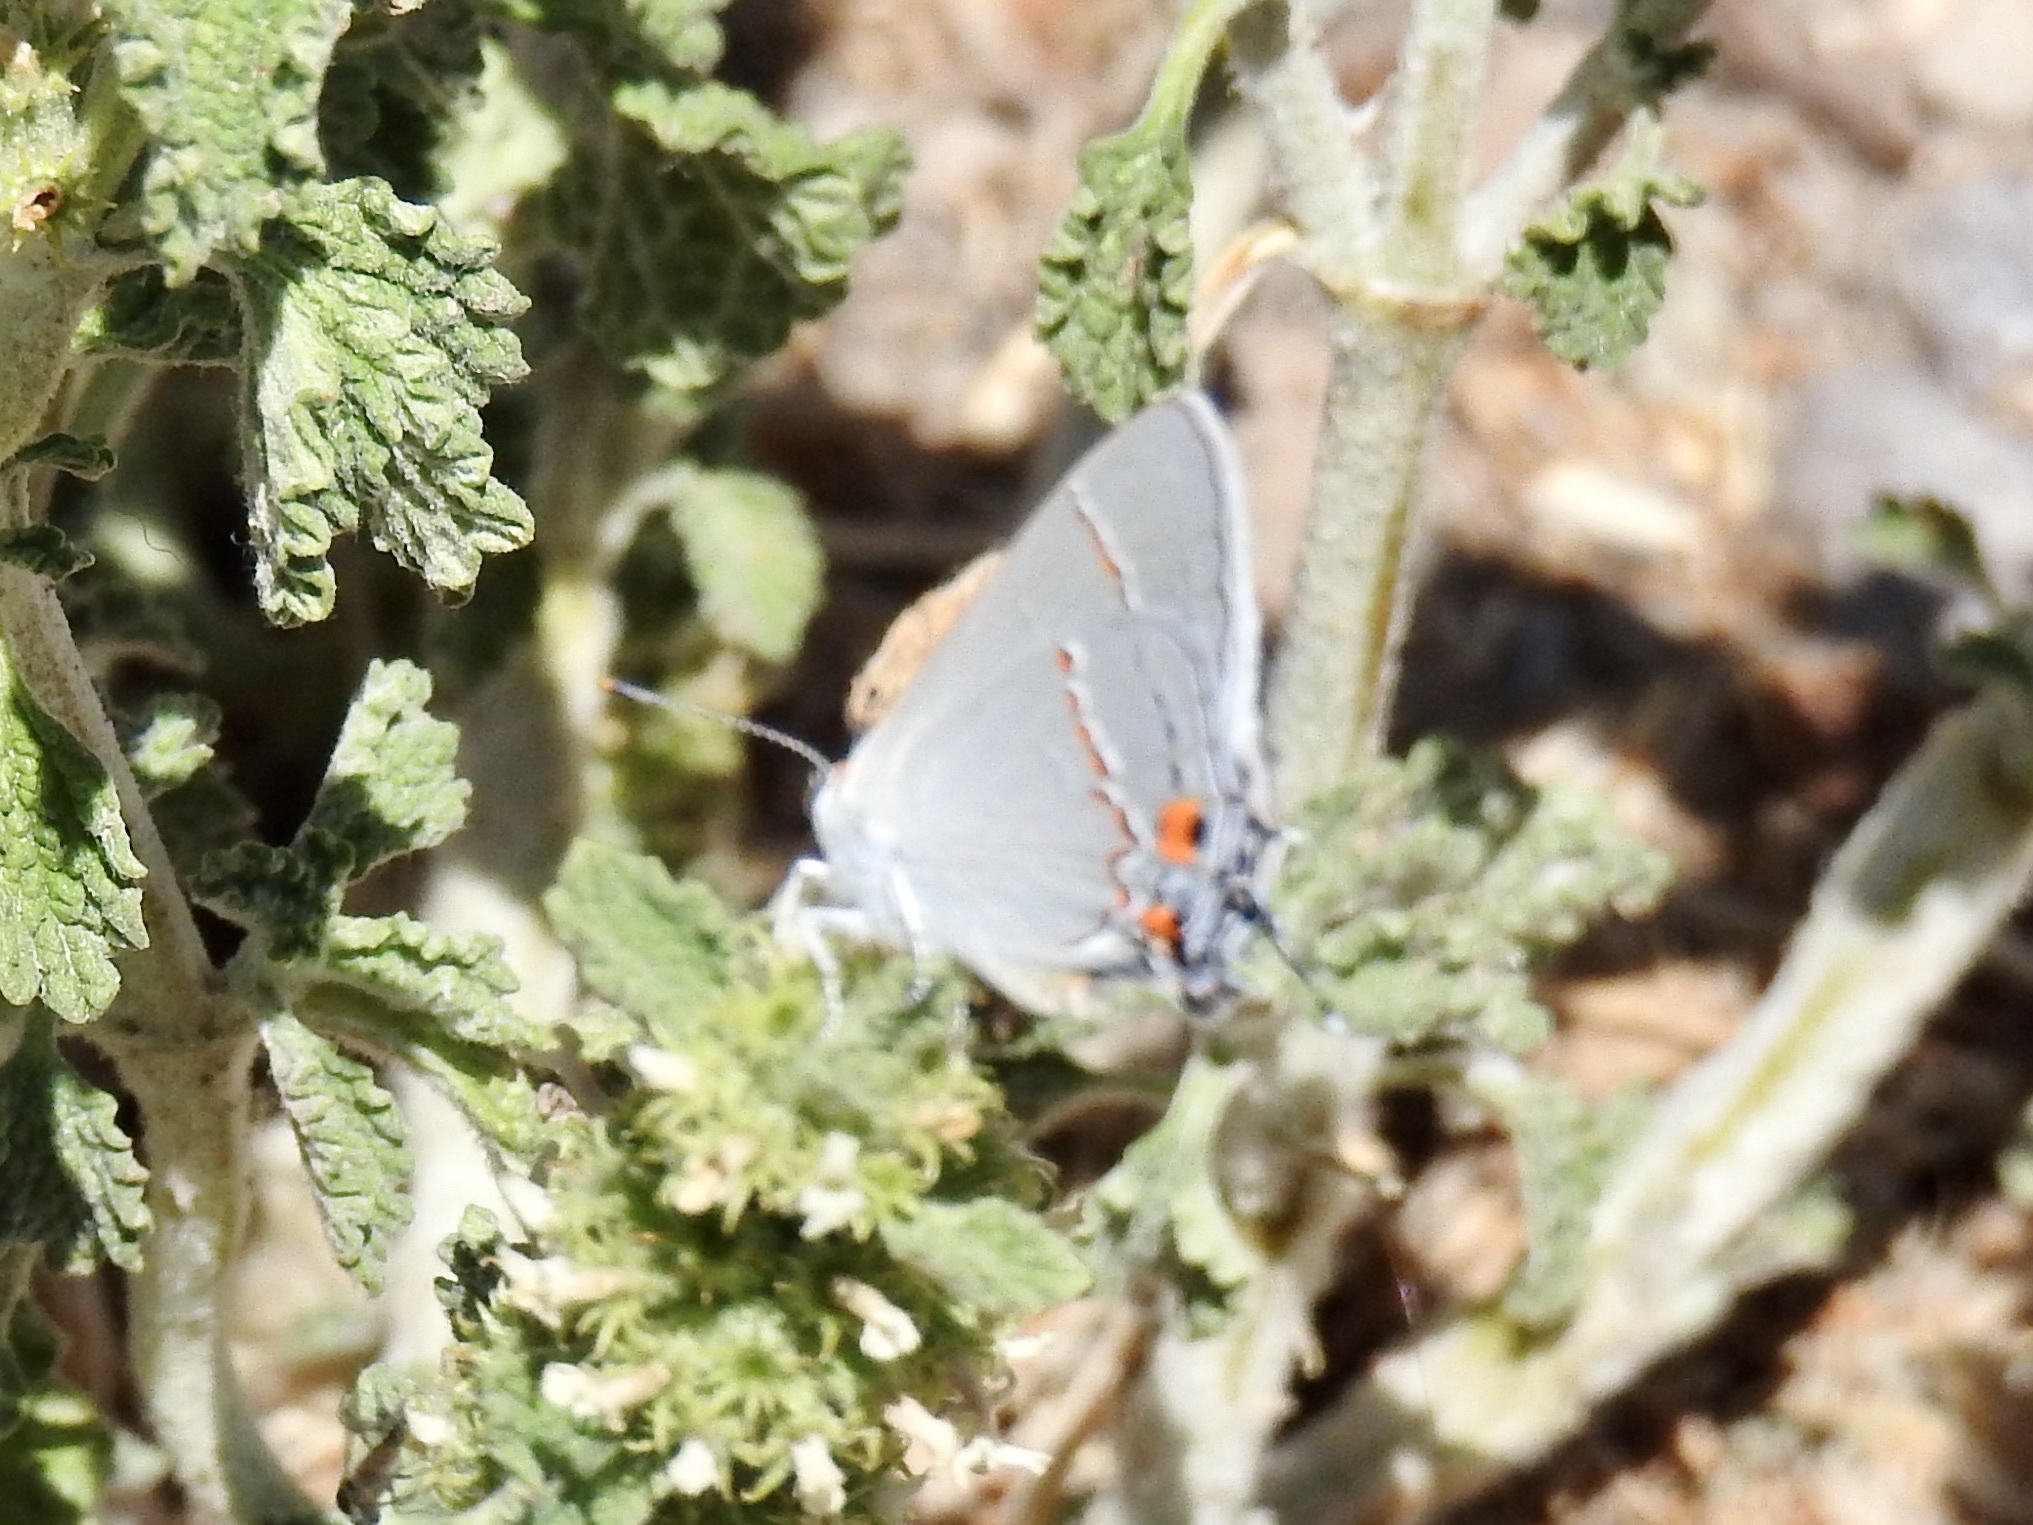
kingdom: Animalia
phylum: Arthropoda
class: Insecta
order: Lepidoptera
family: Lycaenidae
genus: Strymon
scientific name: Strymon melinus
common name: Gray hairstreak
